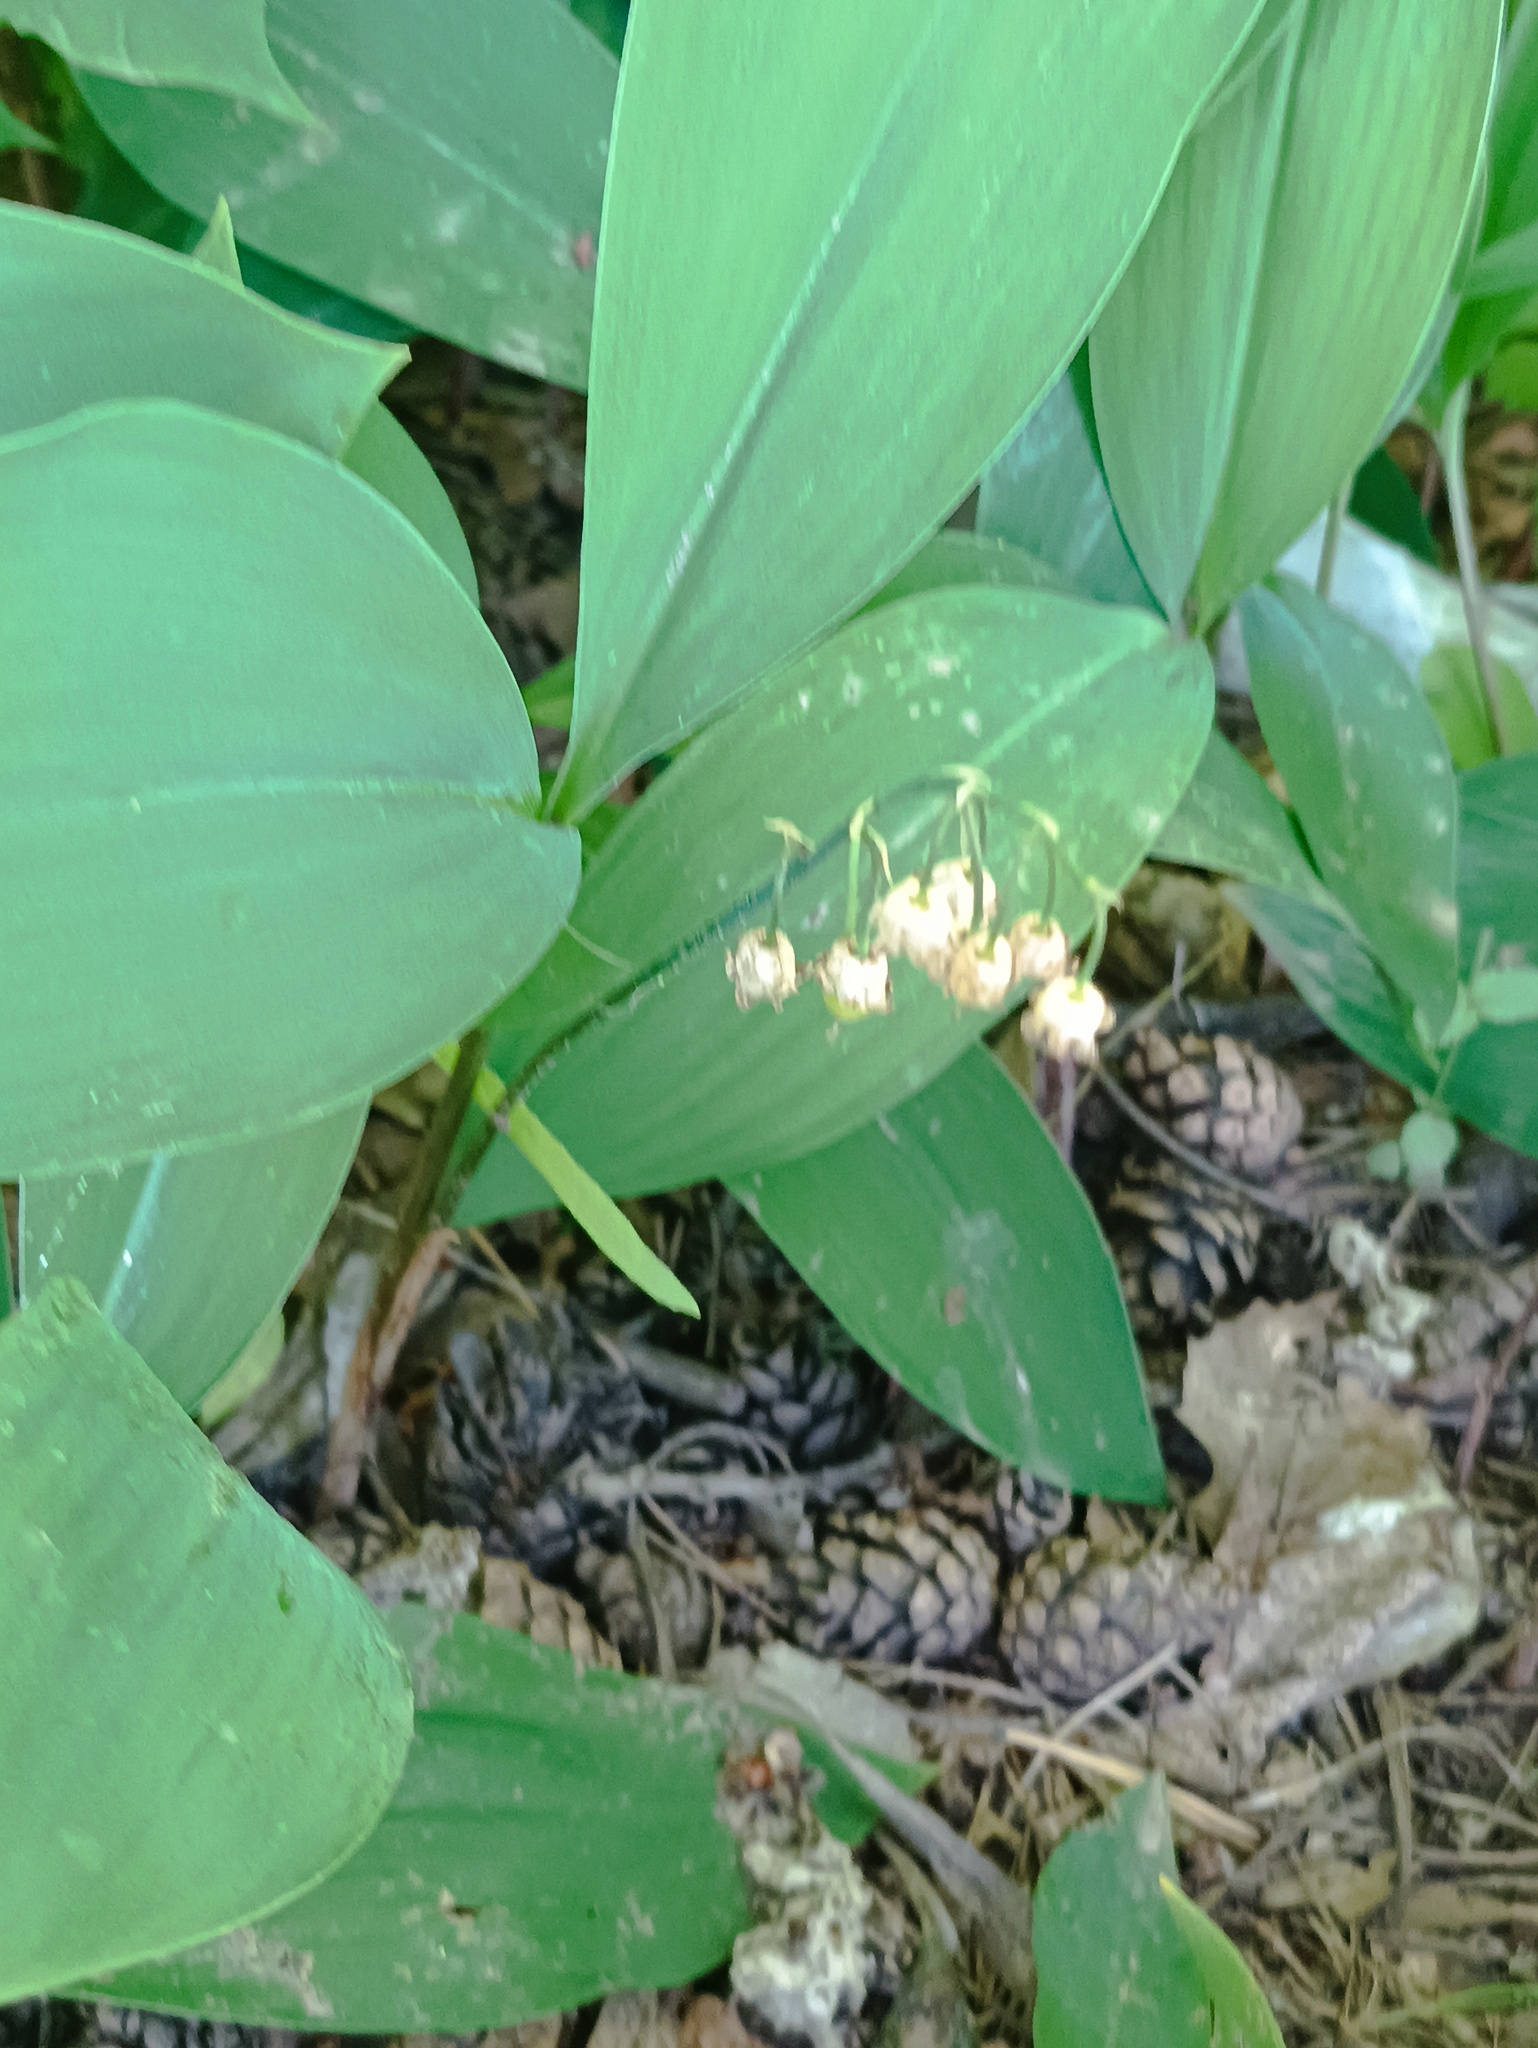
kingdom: Plantae
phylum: Tracheophyta
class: Liliopsida
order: Asparagales
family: Asparagaceae
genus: Convallaria
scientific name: Convallaria majalis
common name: Lily-of-the-valley
